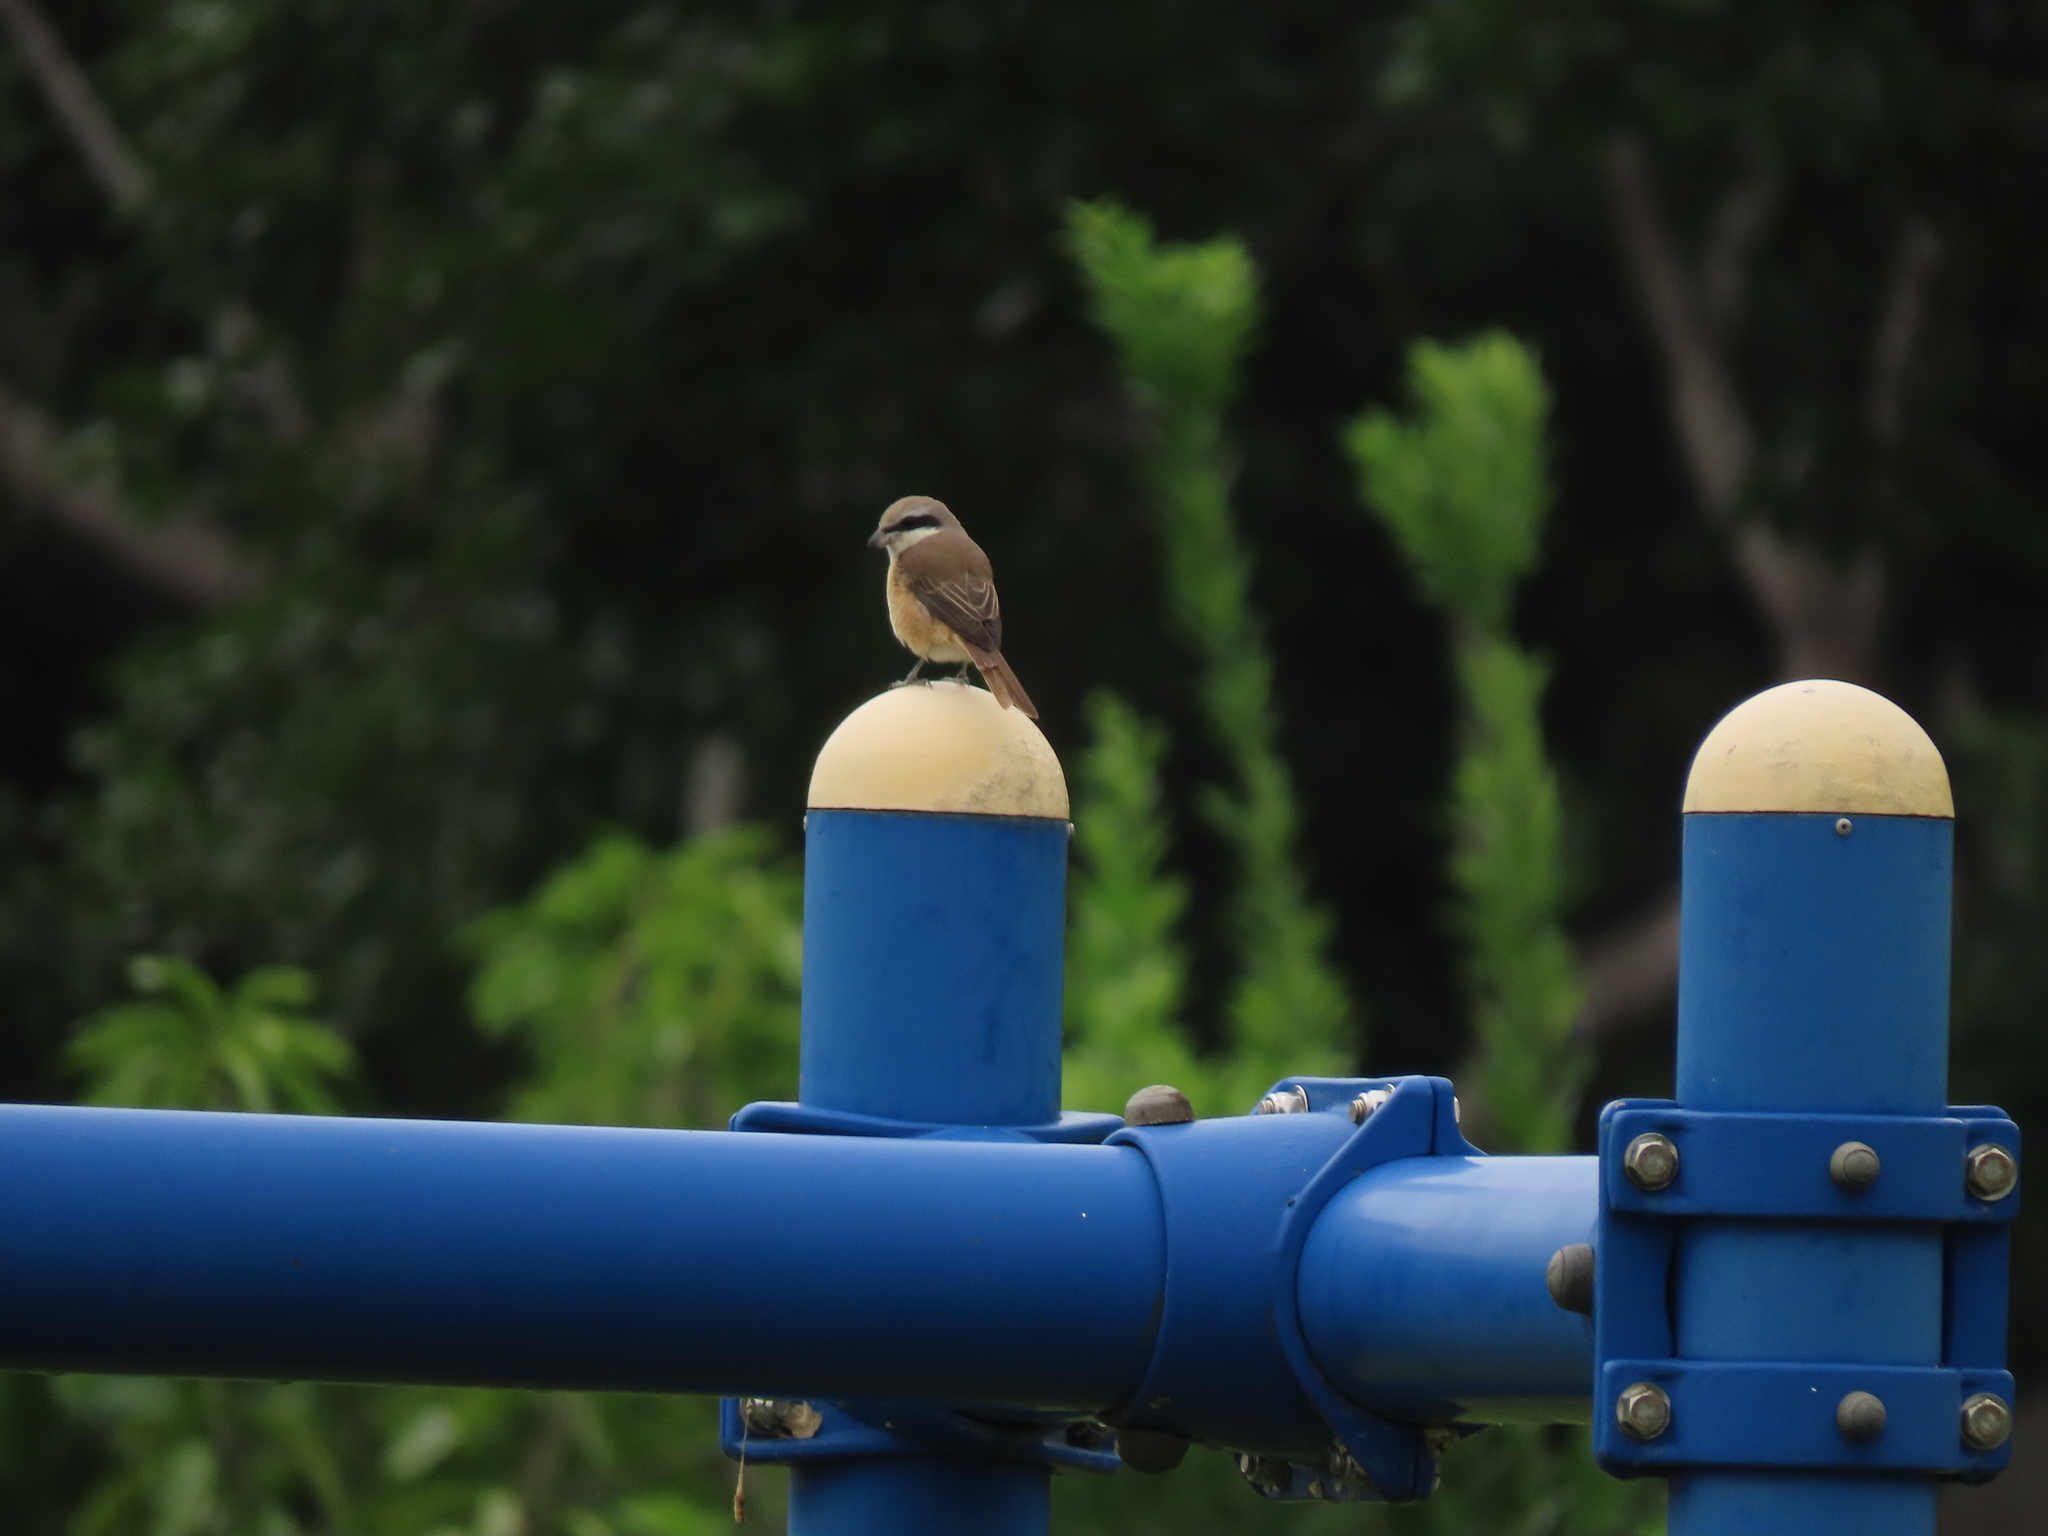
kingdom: Animalia
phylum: Chordata
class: Aves
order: Passeriformes
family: Laniidae
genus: Lanius
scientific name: Lanius cristatus
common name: Brown shrike
